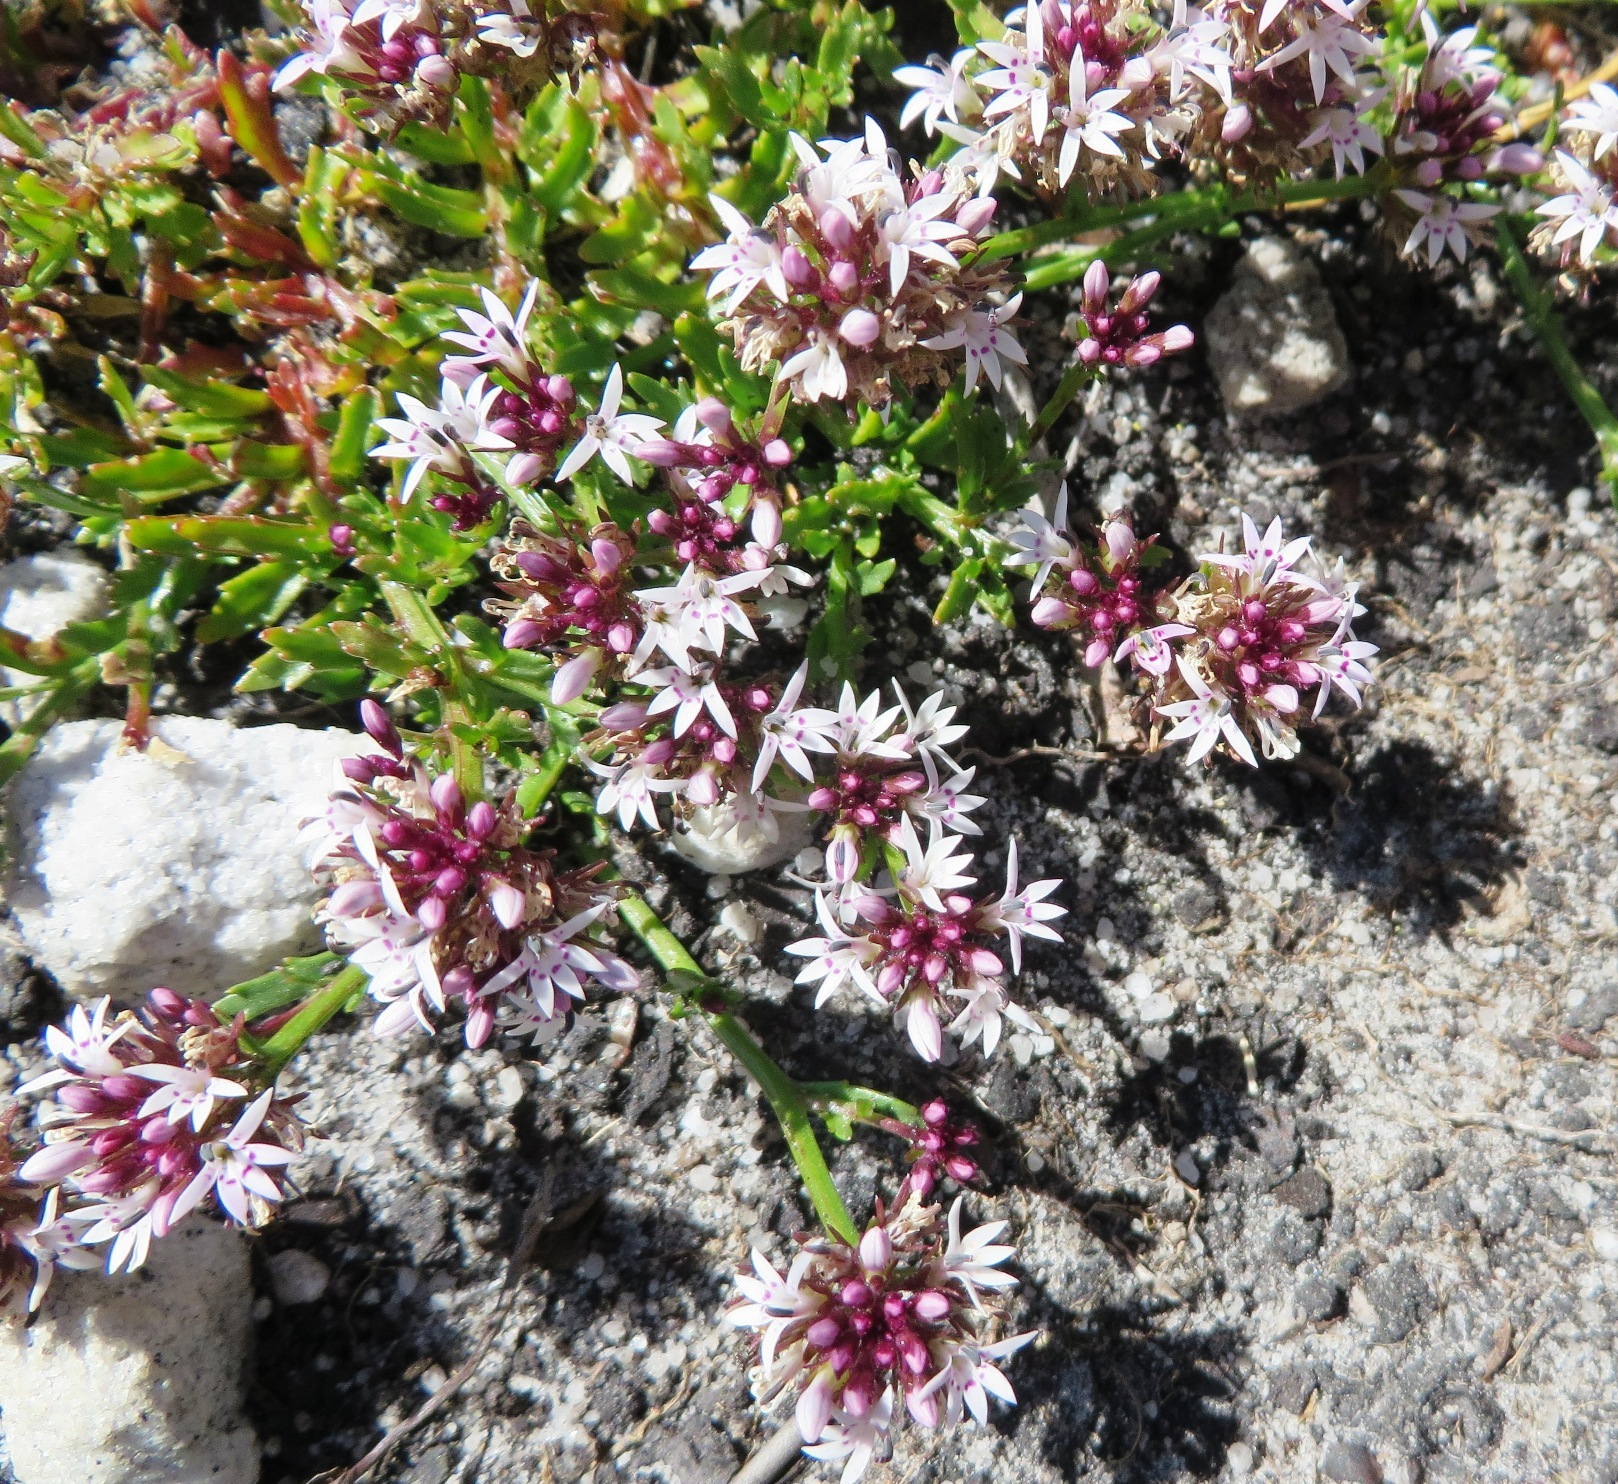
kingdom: Plantae
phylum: Tracheophyta
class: Magnoliopsida
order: Asterales
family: Campanulaceae
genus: Lobelia
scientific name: Lobelia jasionoides
